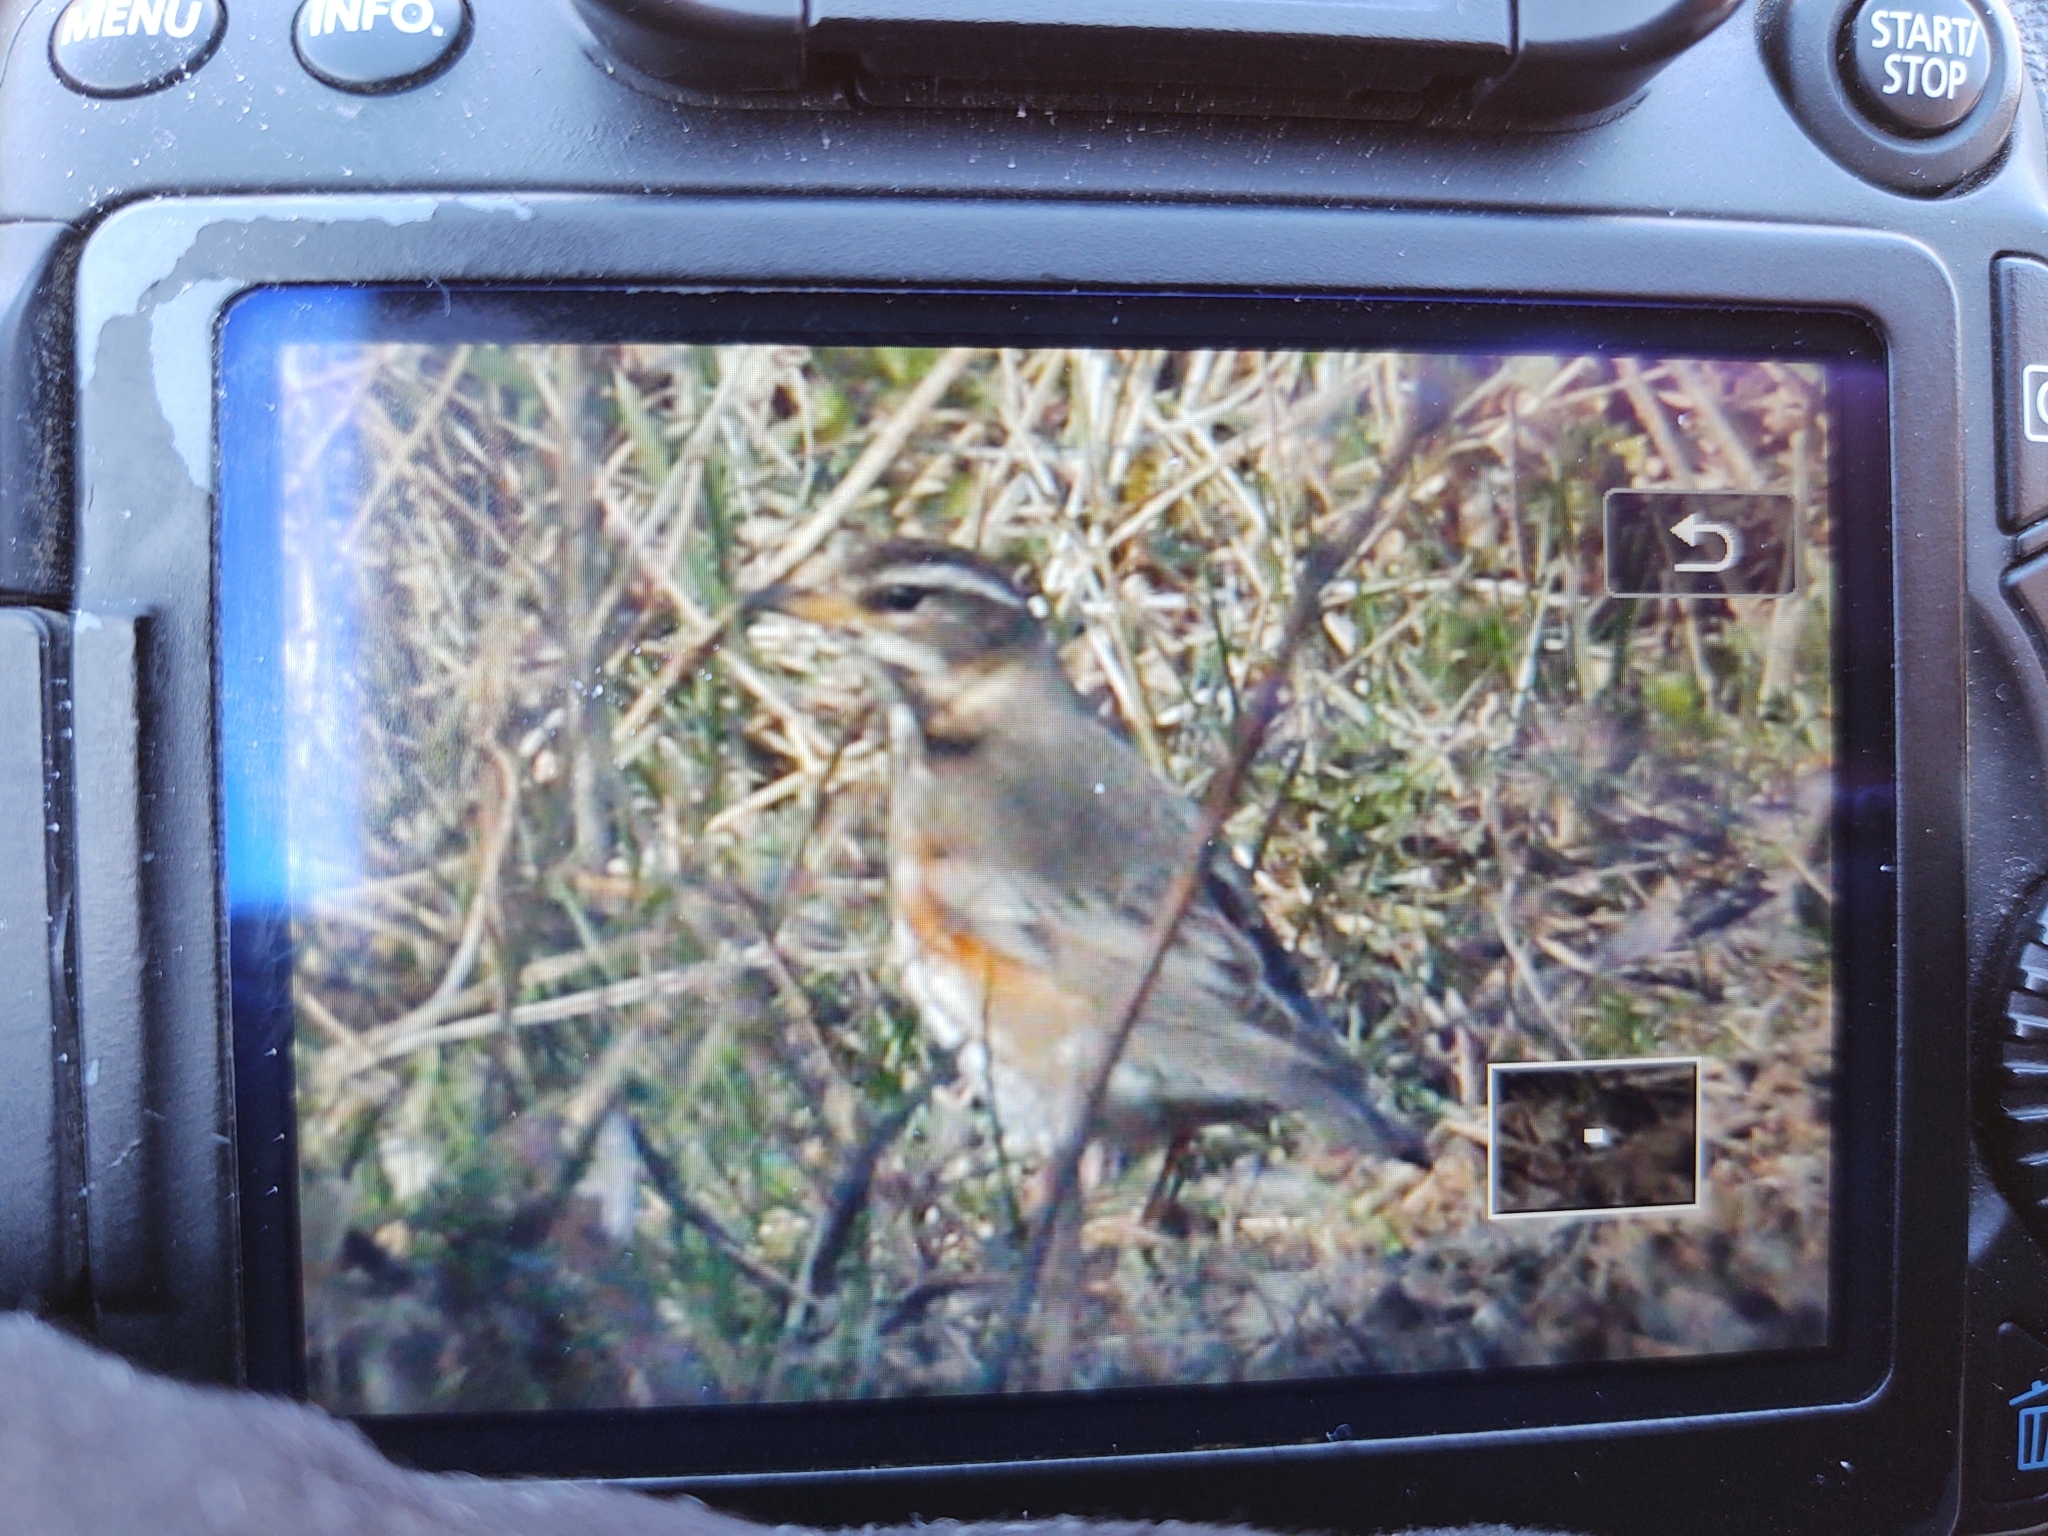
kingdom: Animalia
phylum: Chordata
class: Aves
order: Passeriformes
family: Turdidae
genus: Turdus
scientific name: Turdus iliacus
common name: Redwing
